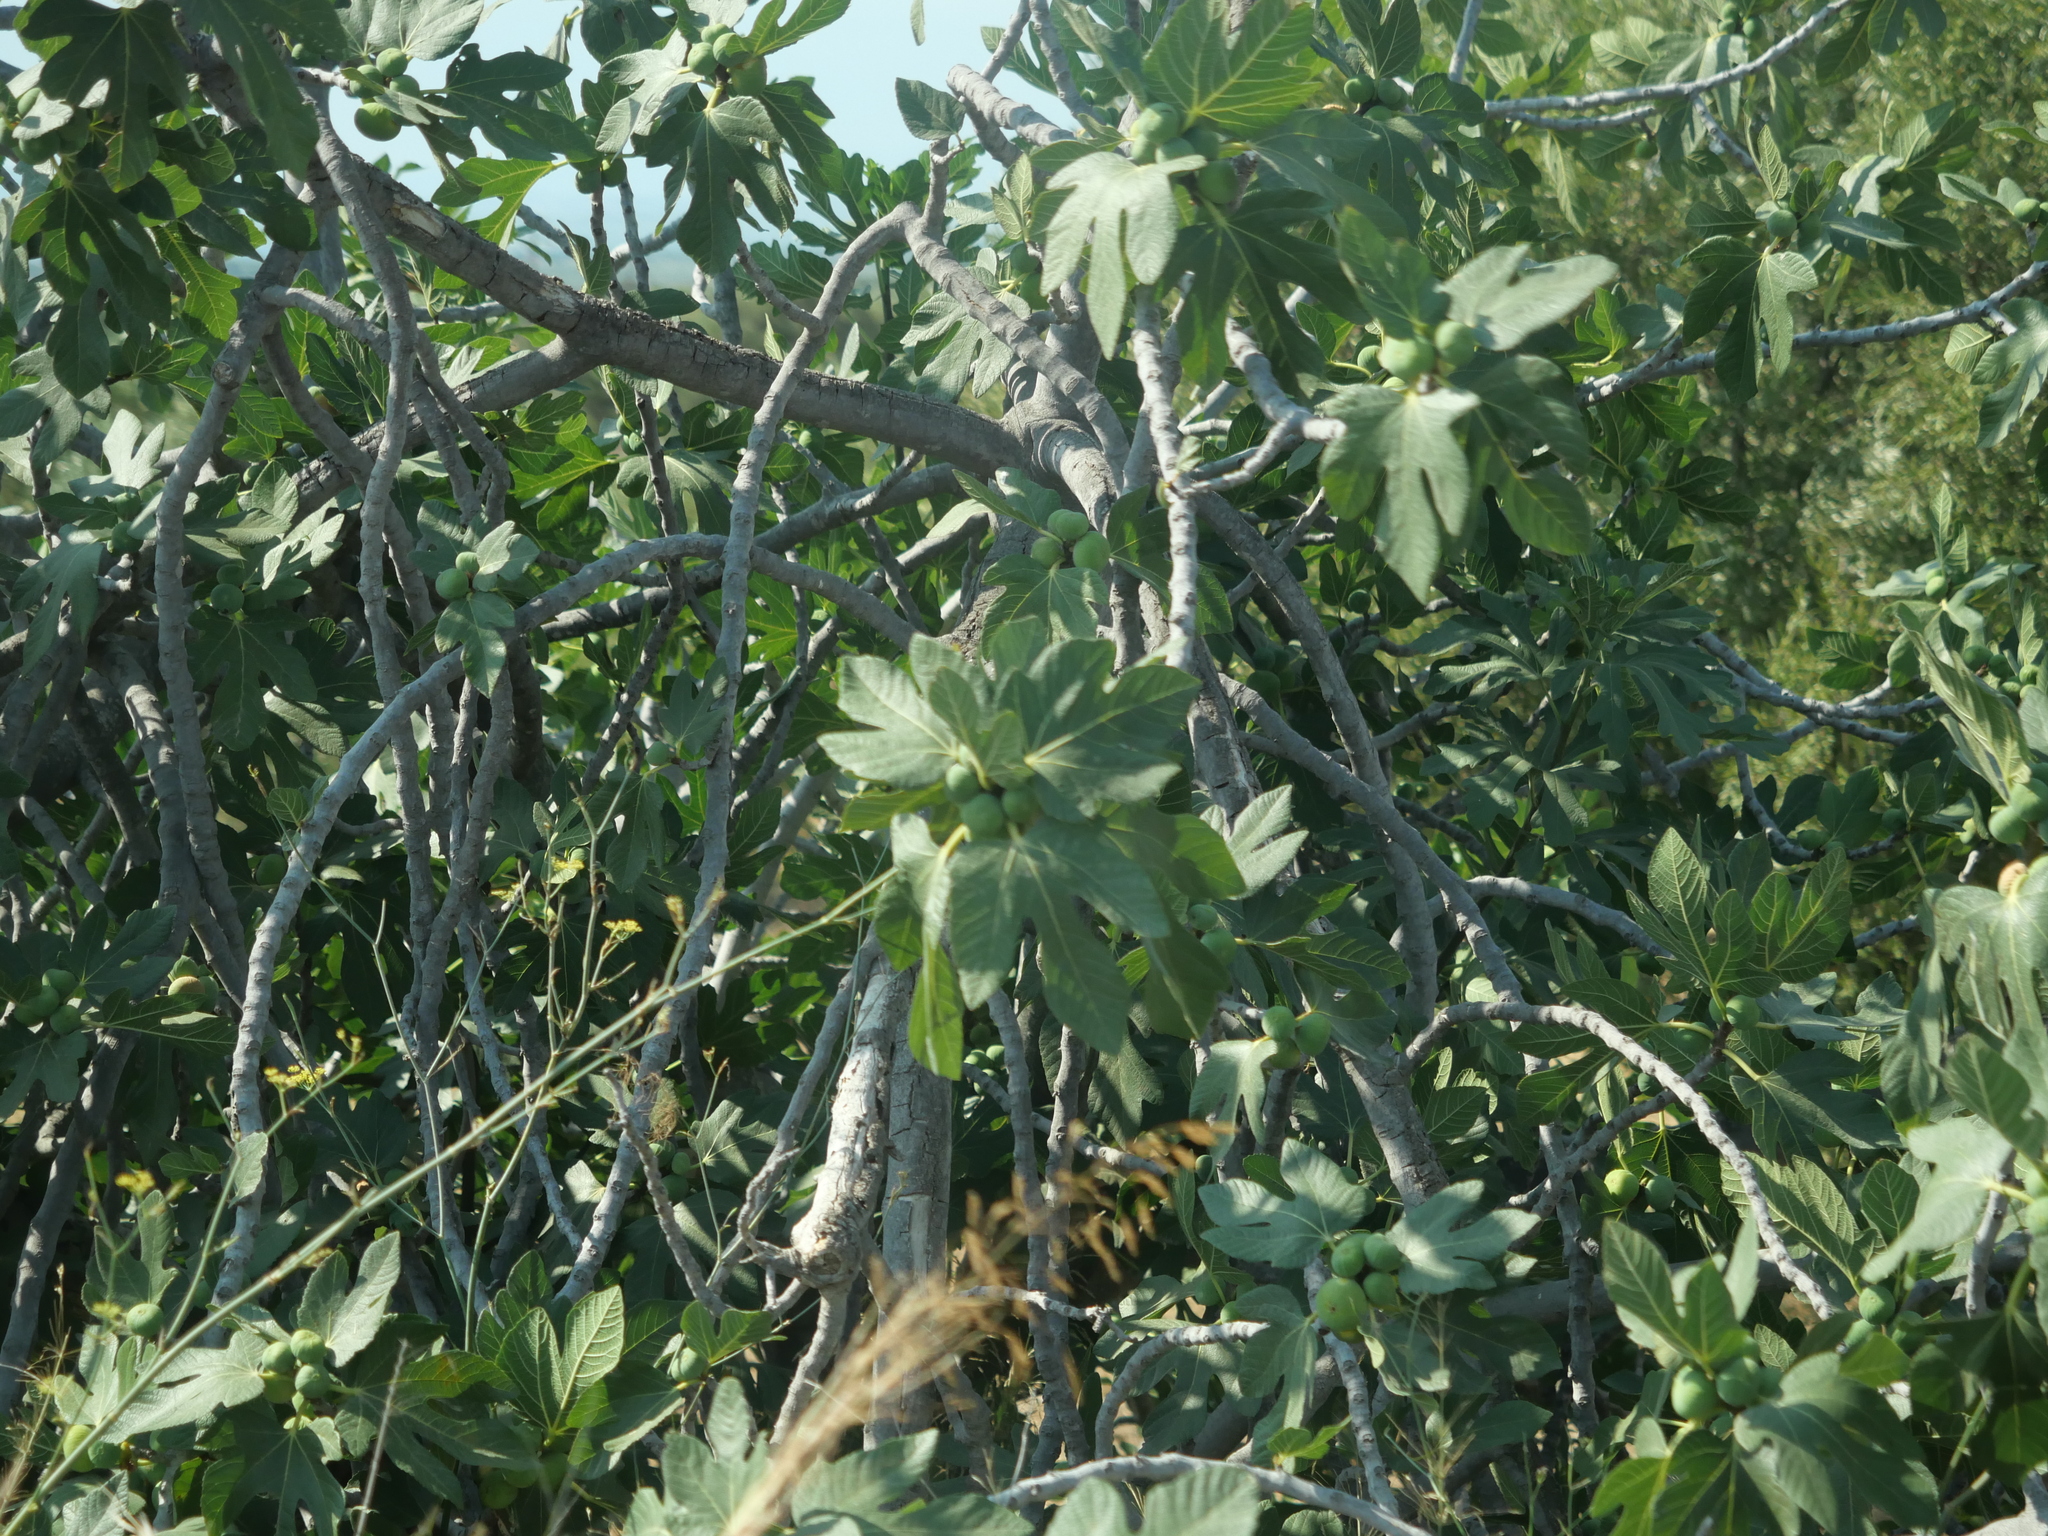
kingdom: Plantae
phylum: Tracheophyta
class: Magnoliopsida
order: Rosales
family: Moraceae
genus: Ficus
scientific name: Ficus carica
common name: Fig
